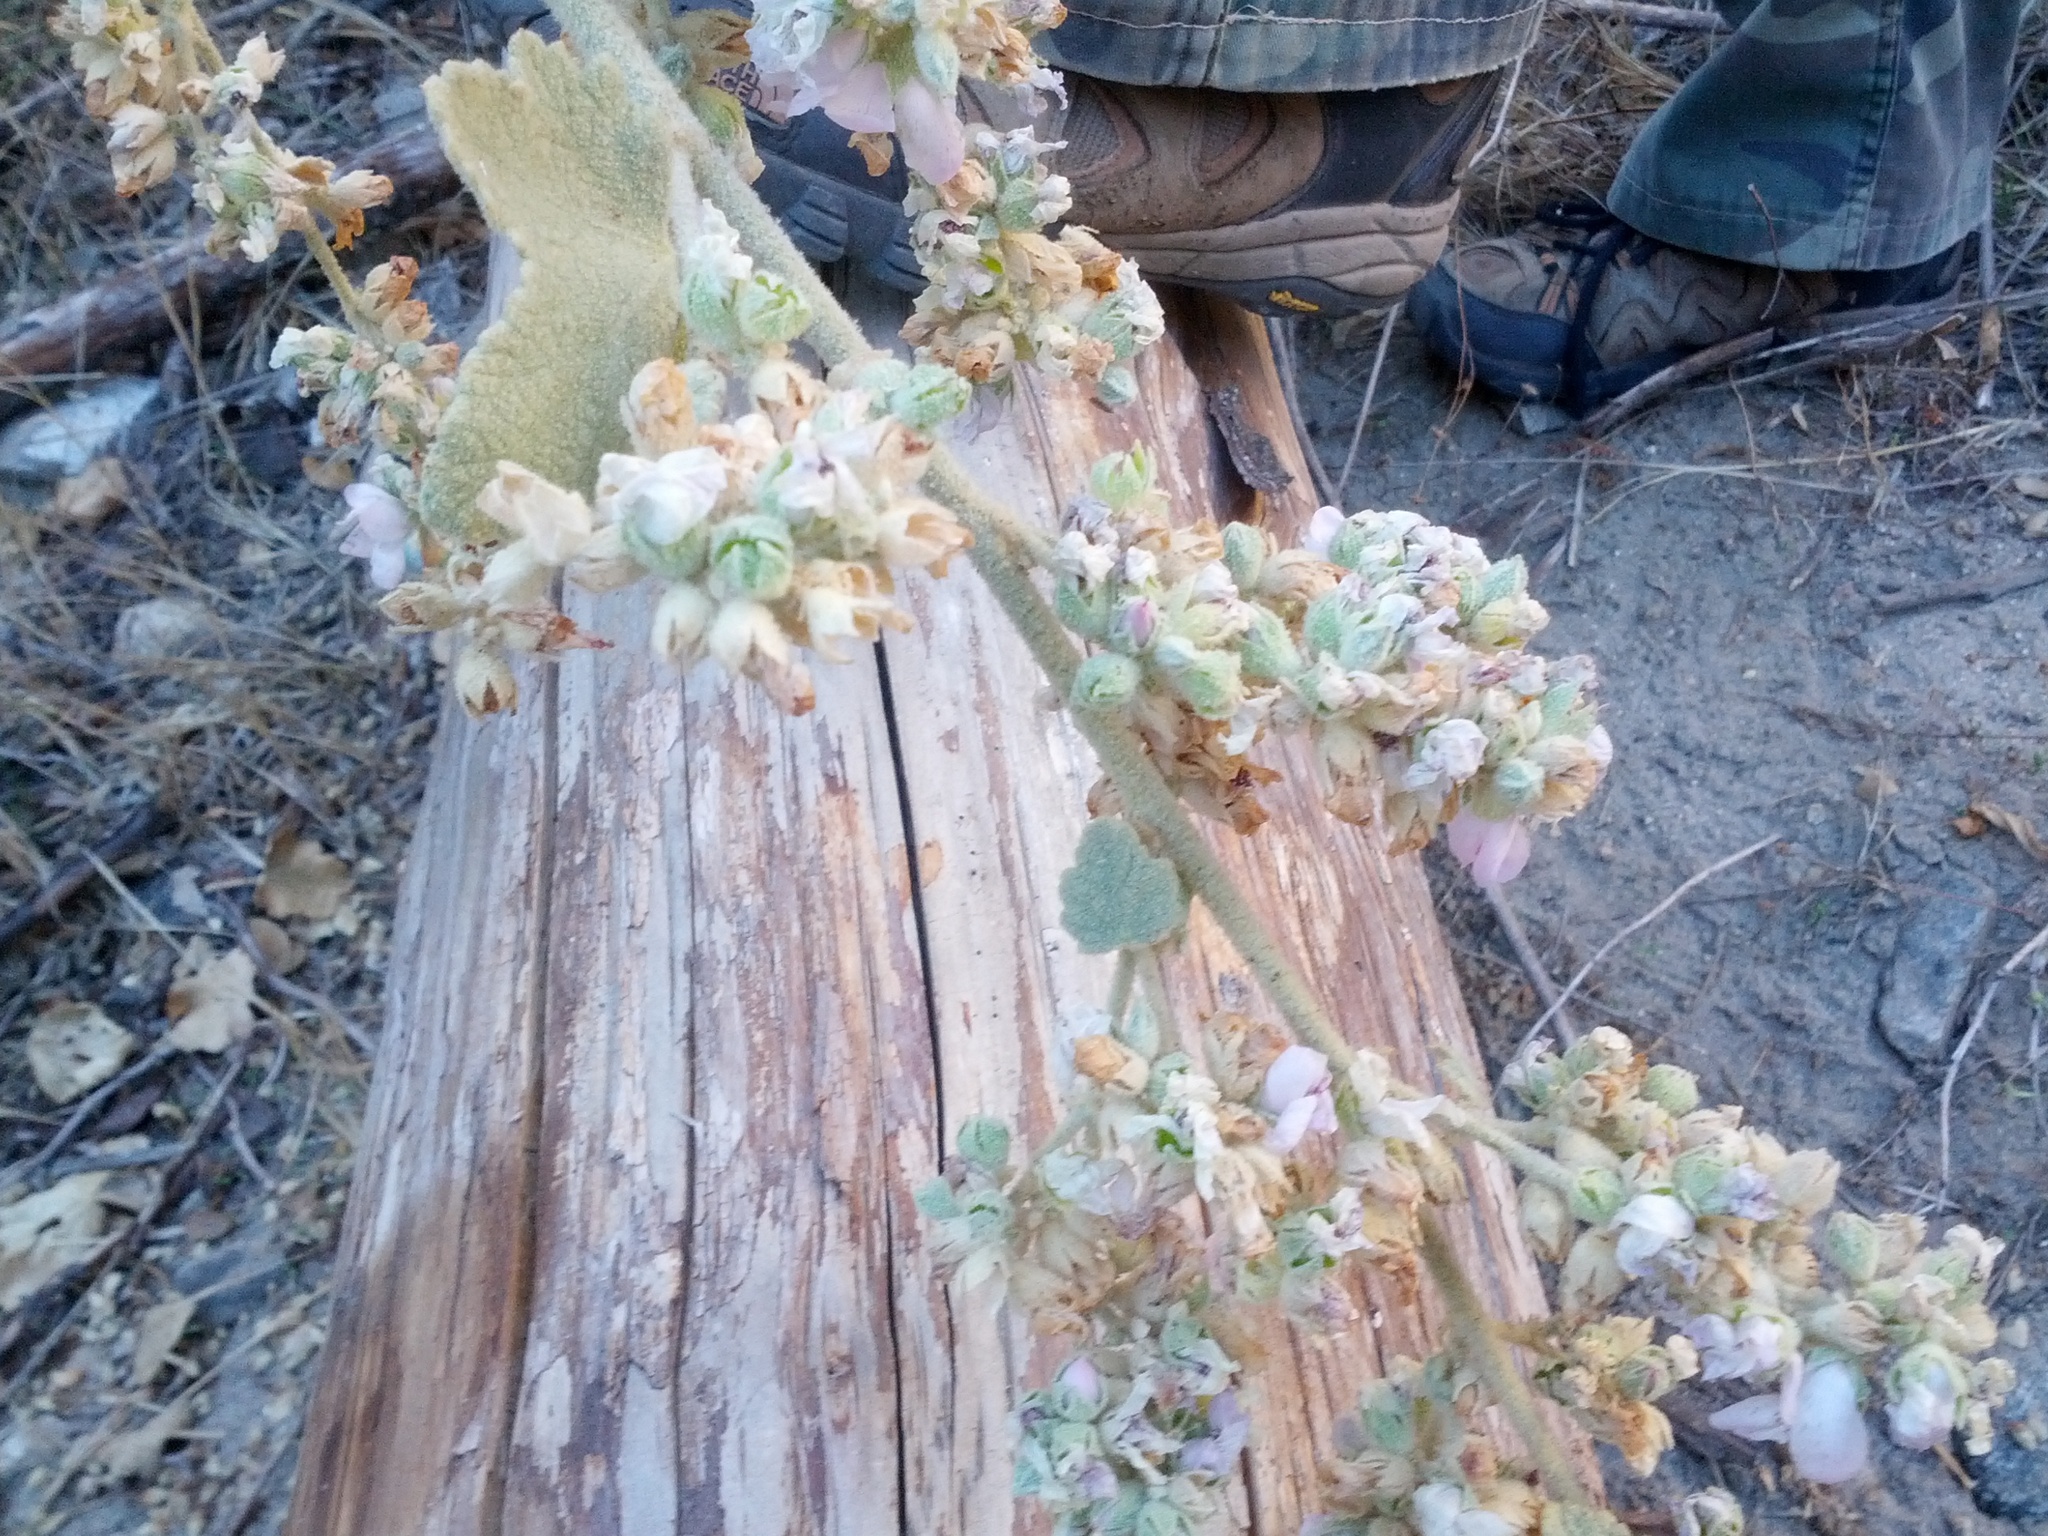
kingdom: Plantae
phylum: Tracheophyta
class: Magnoliopsida
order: Malvales
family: Malvaceae
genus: Malacothamnus
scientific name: Malacothamnus davidsonii
